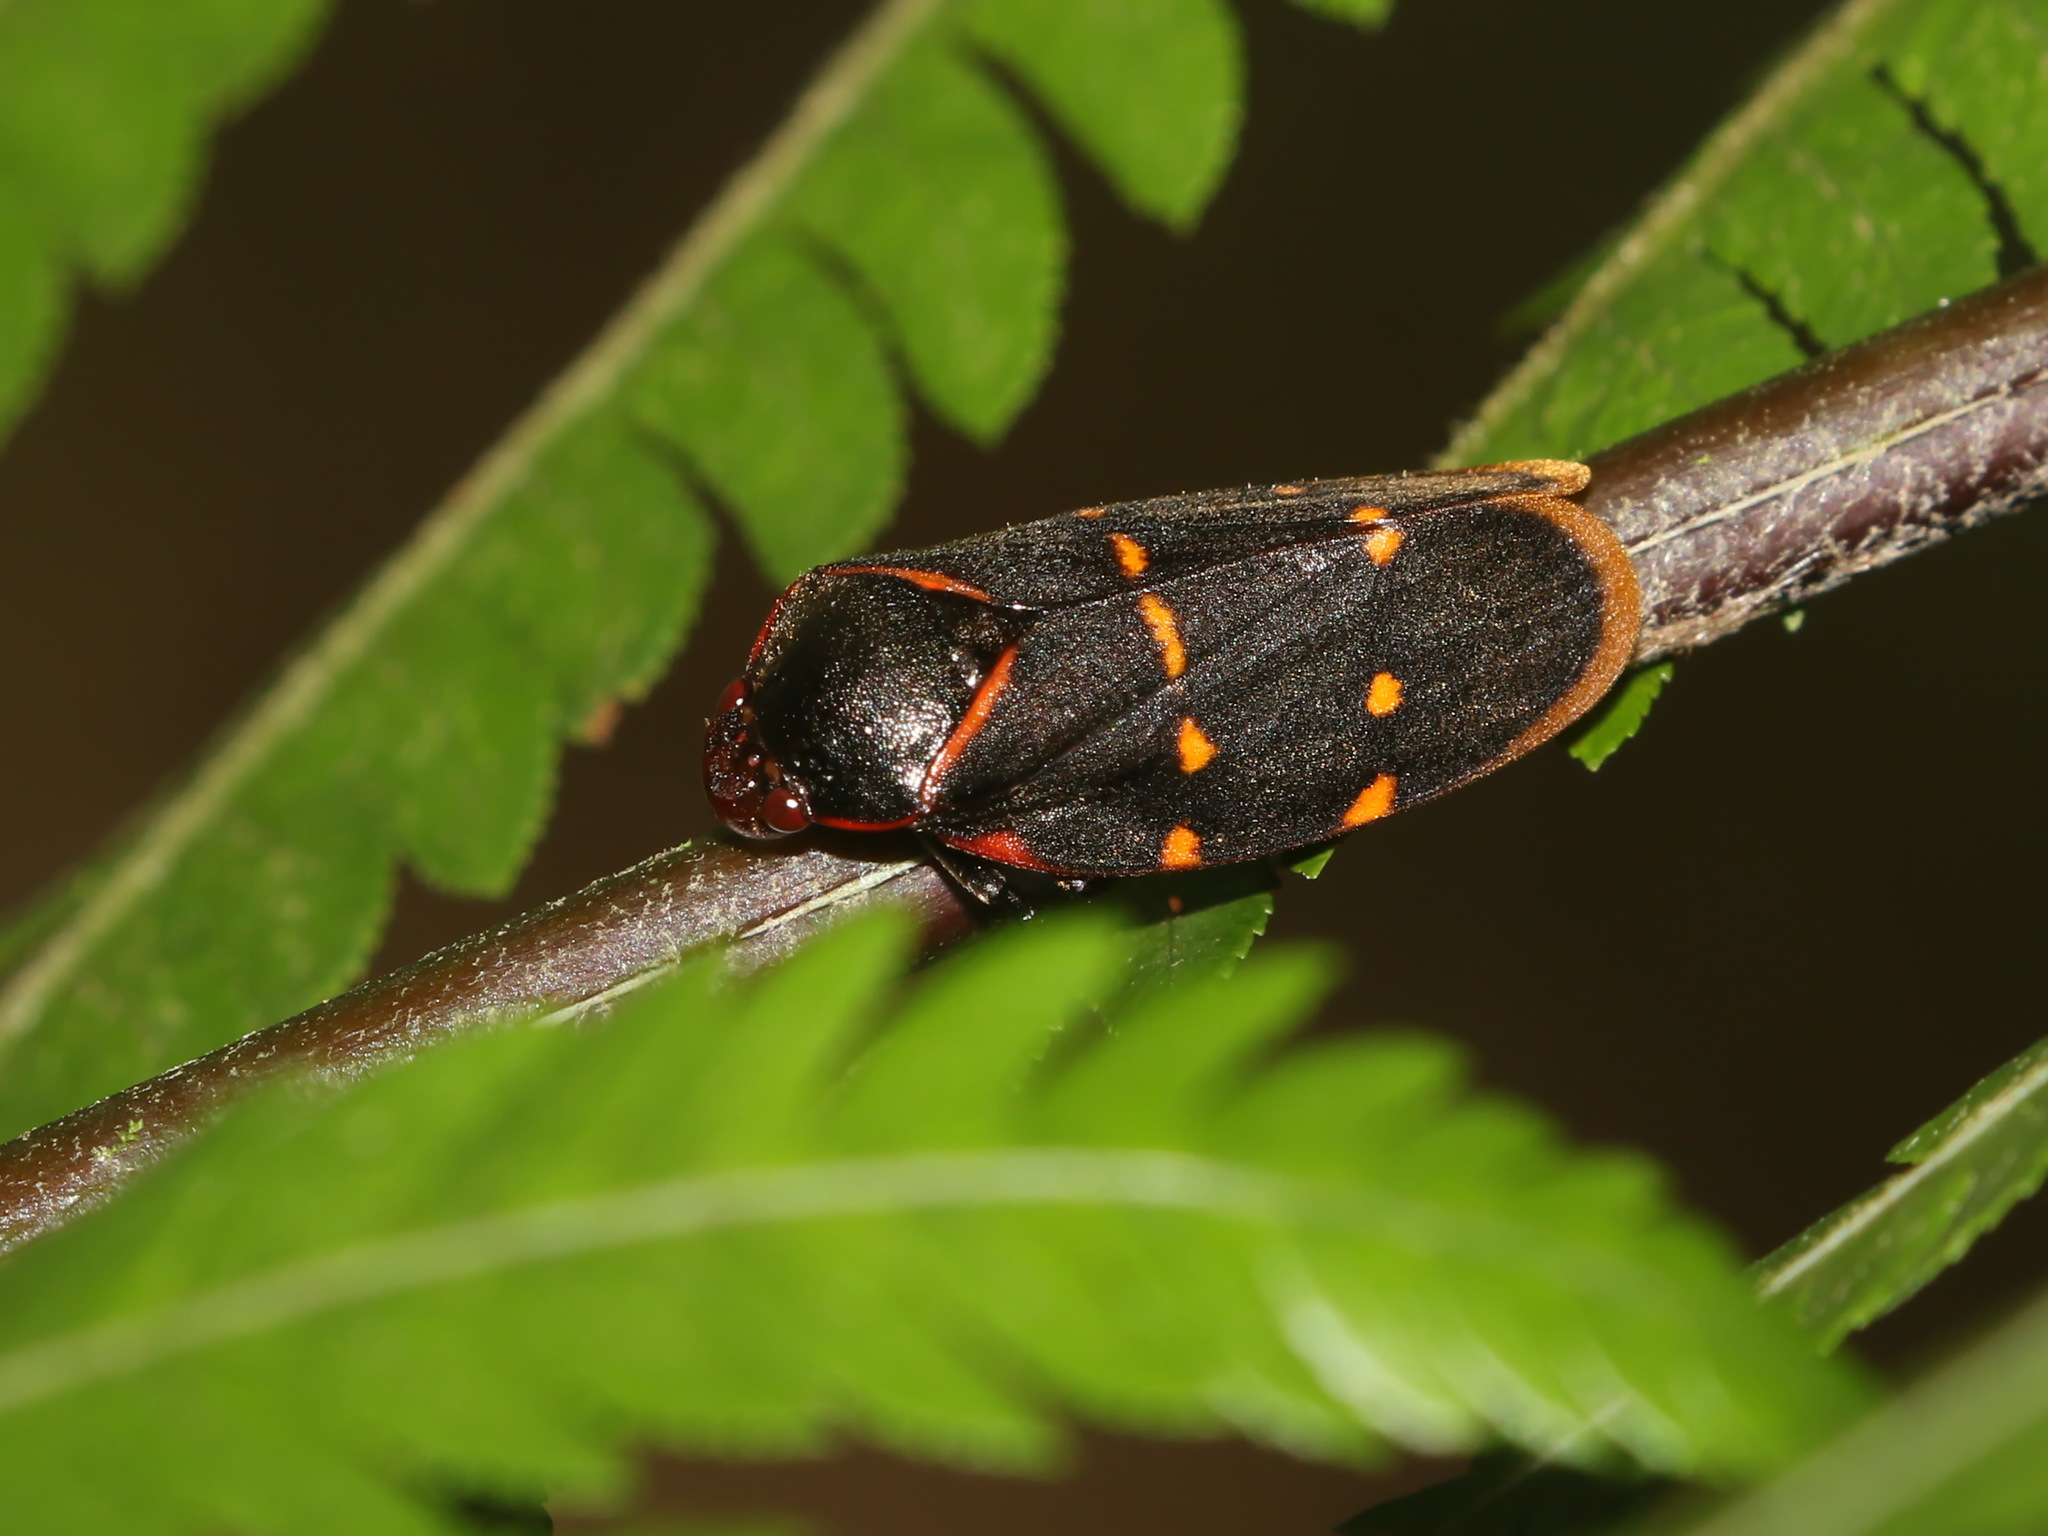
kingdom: Animalia
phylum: Arthropoda
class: Insecta
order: Hemiptera
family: Cercopidae
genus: Phymatostetha
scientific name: Phymatostetha triseriata
